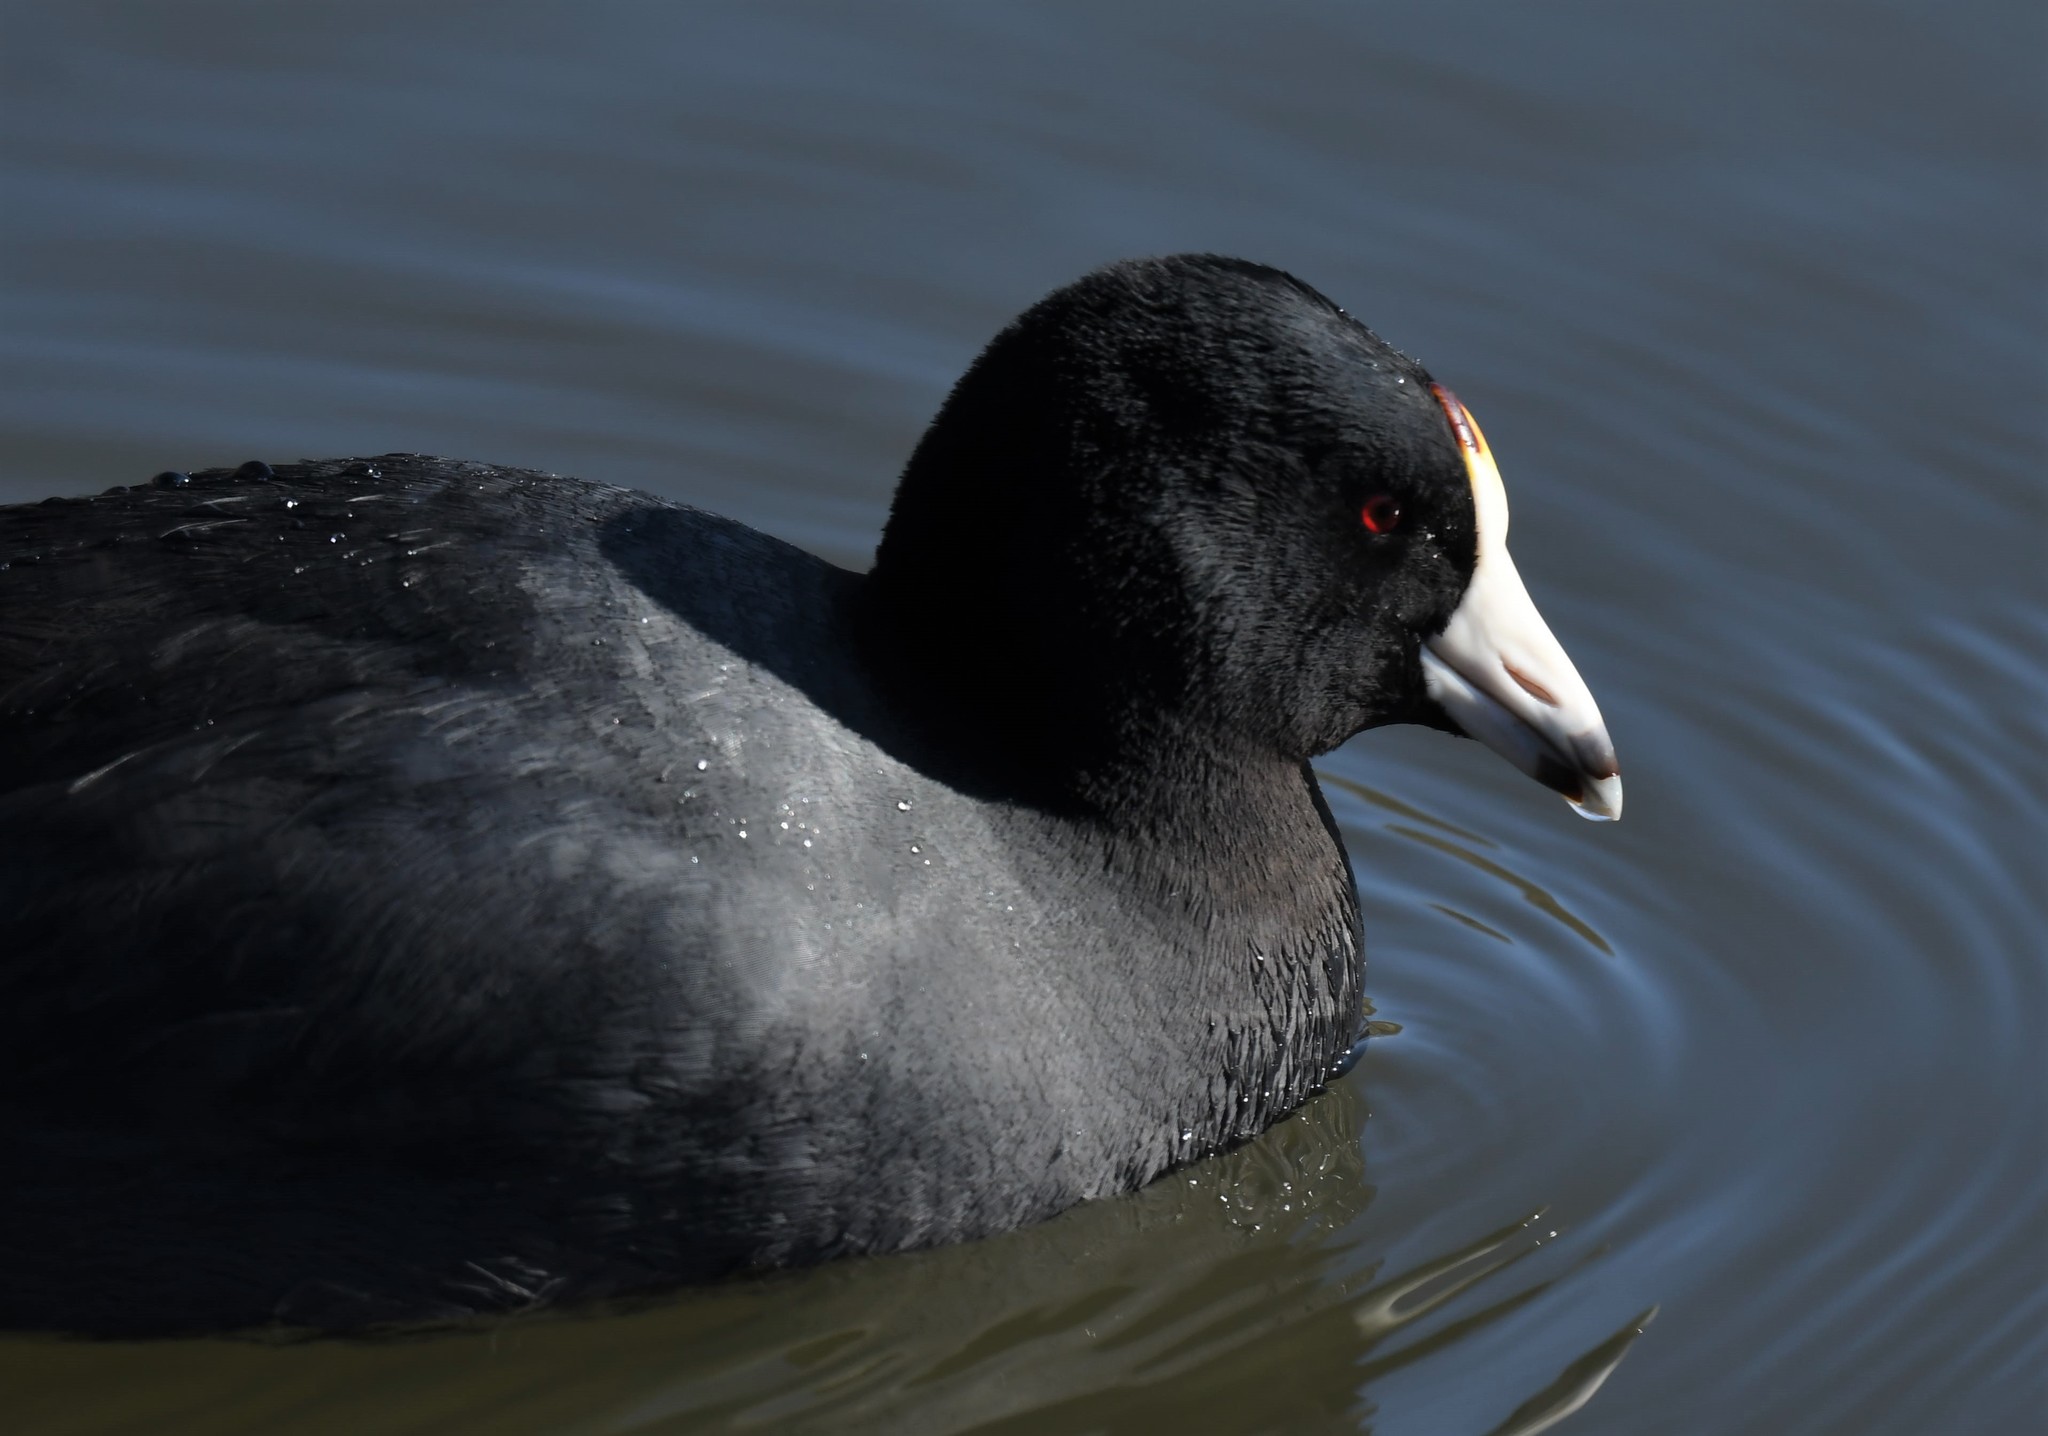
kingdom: Animalia
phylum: Chordata
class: Aves
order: Gruiformes
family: Rallidae
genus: Fulica
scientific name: Fulica americana
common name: American coot
